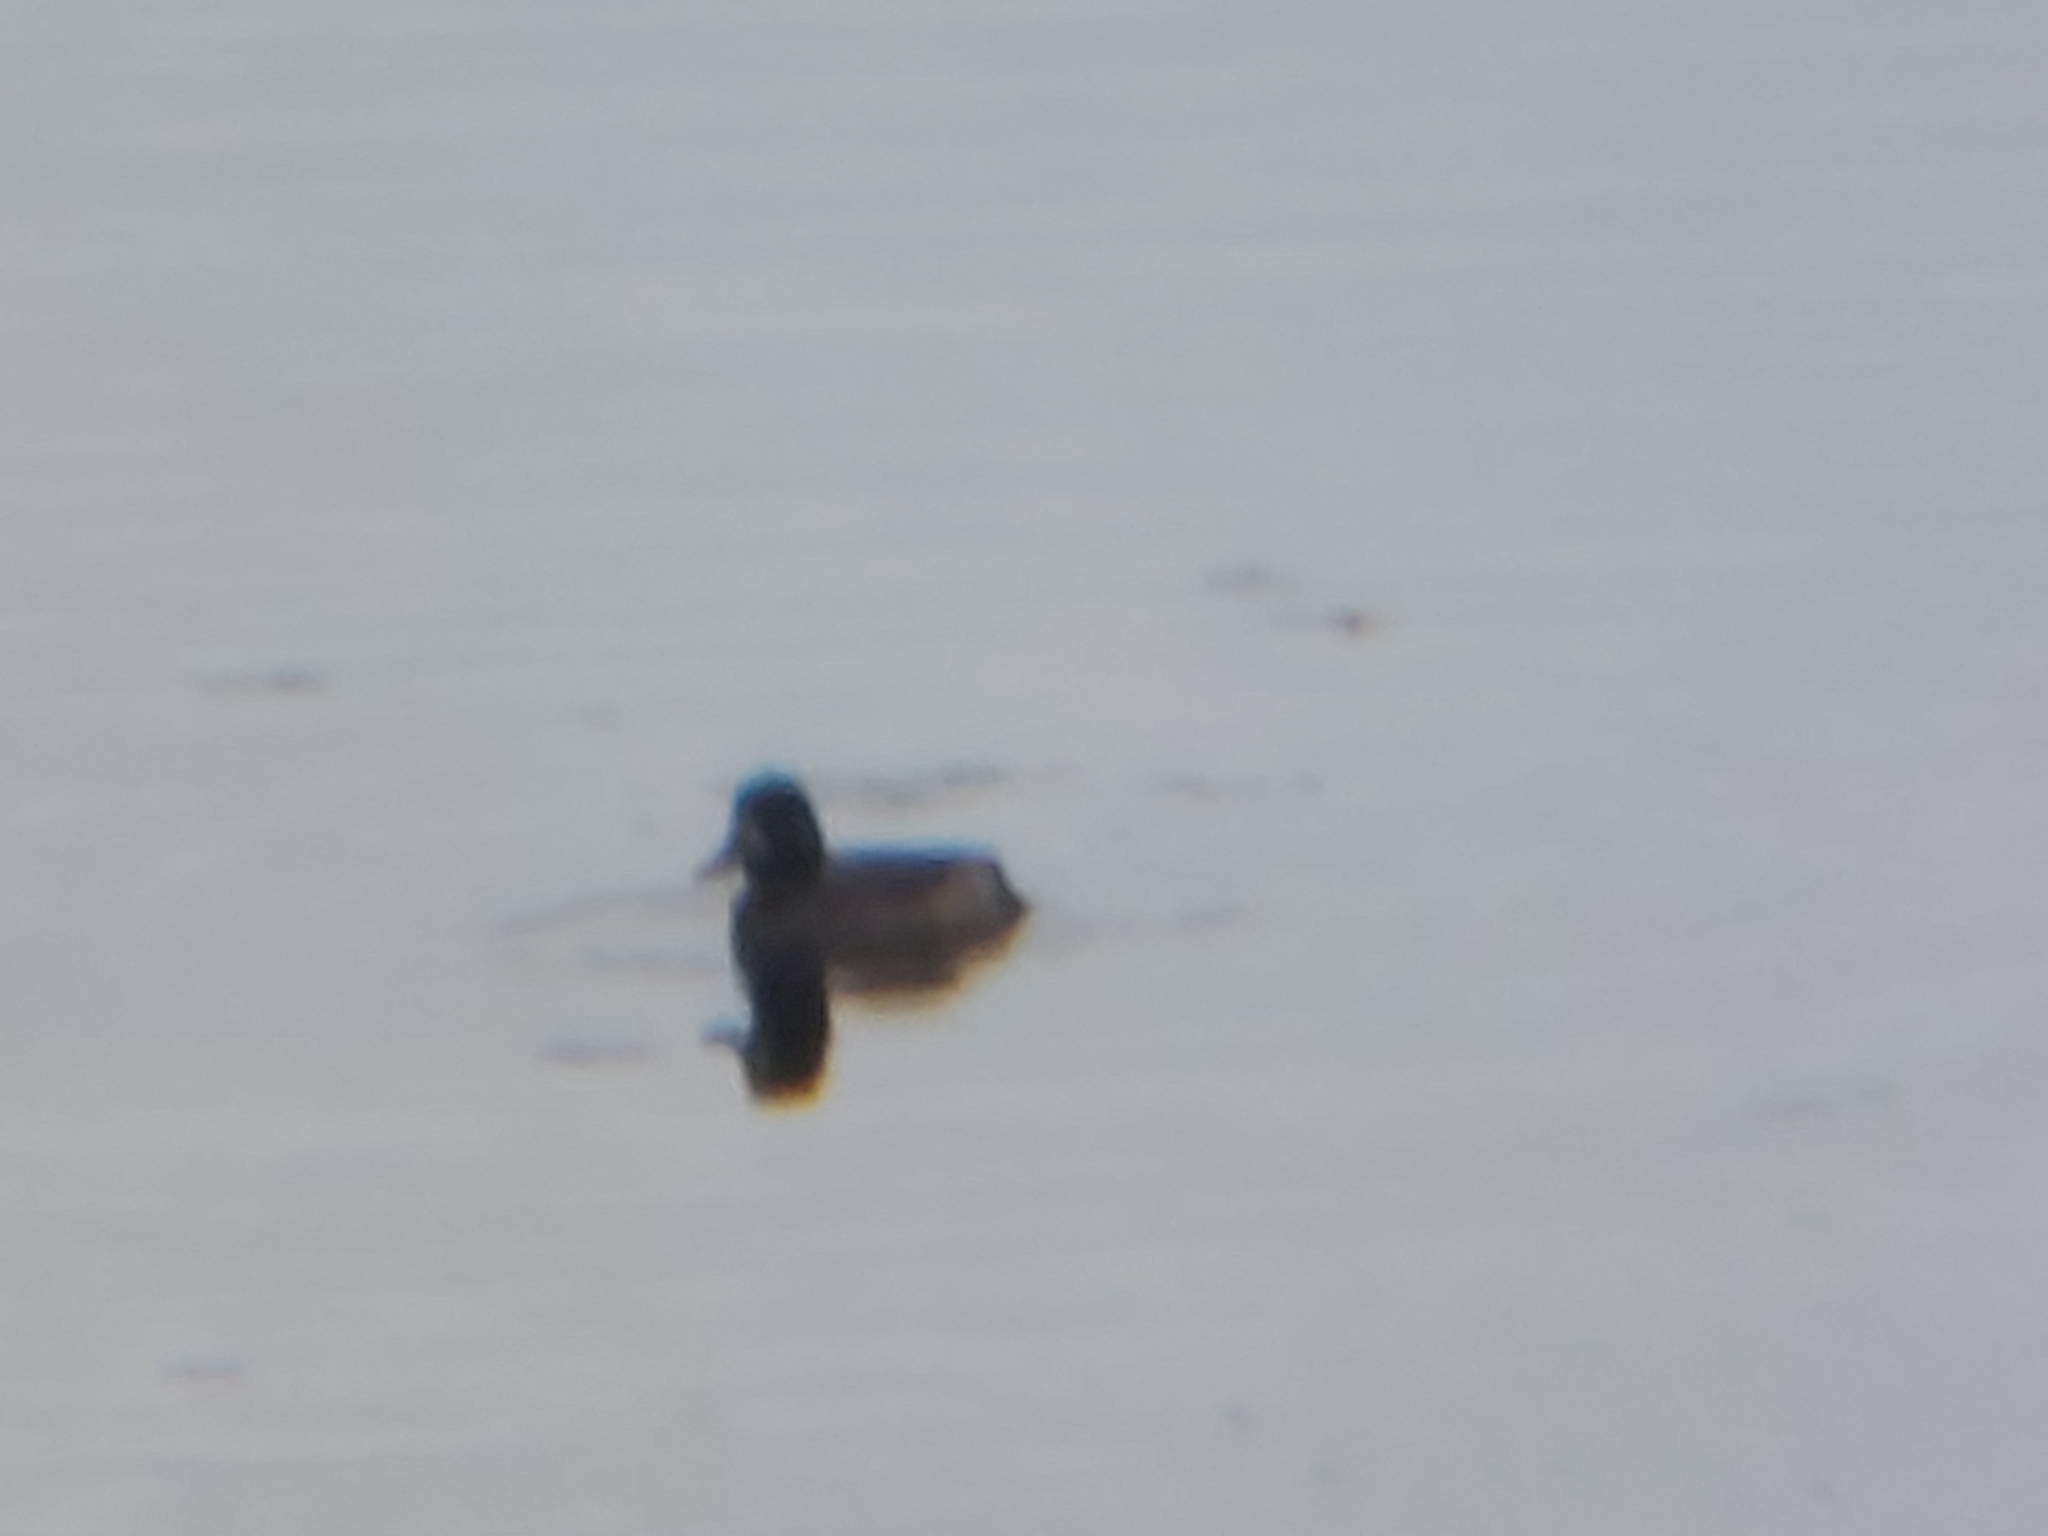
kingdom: Animalia
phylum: Chordata
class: Aves
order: Anseriformes
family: Anatidae
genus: Aythya
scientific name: Aythya fuligula
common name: Tufted duck
